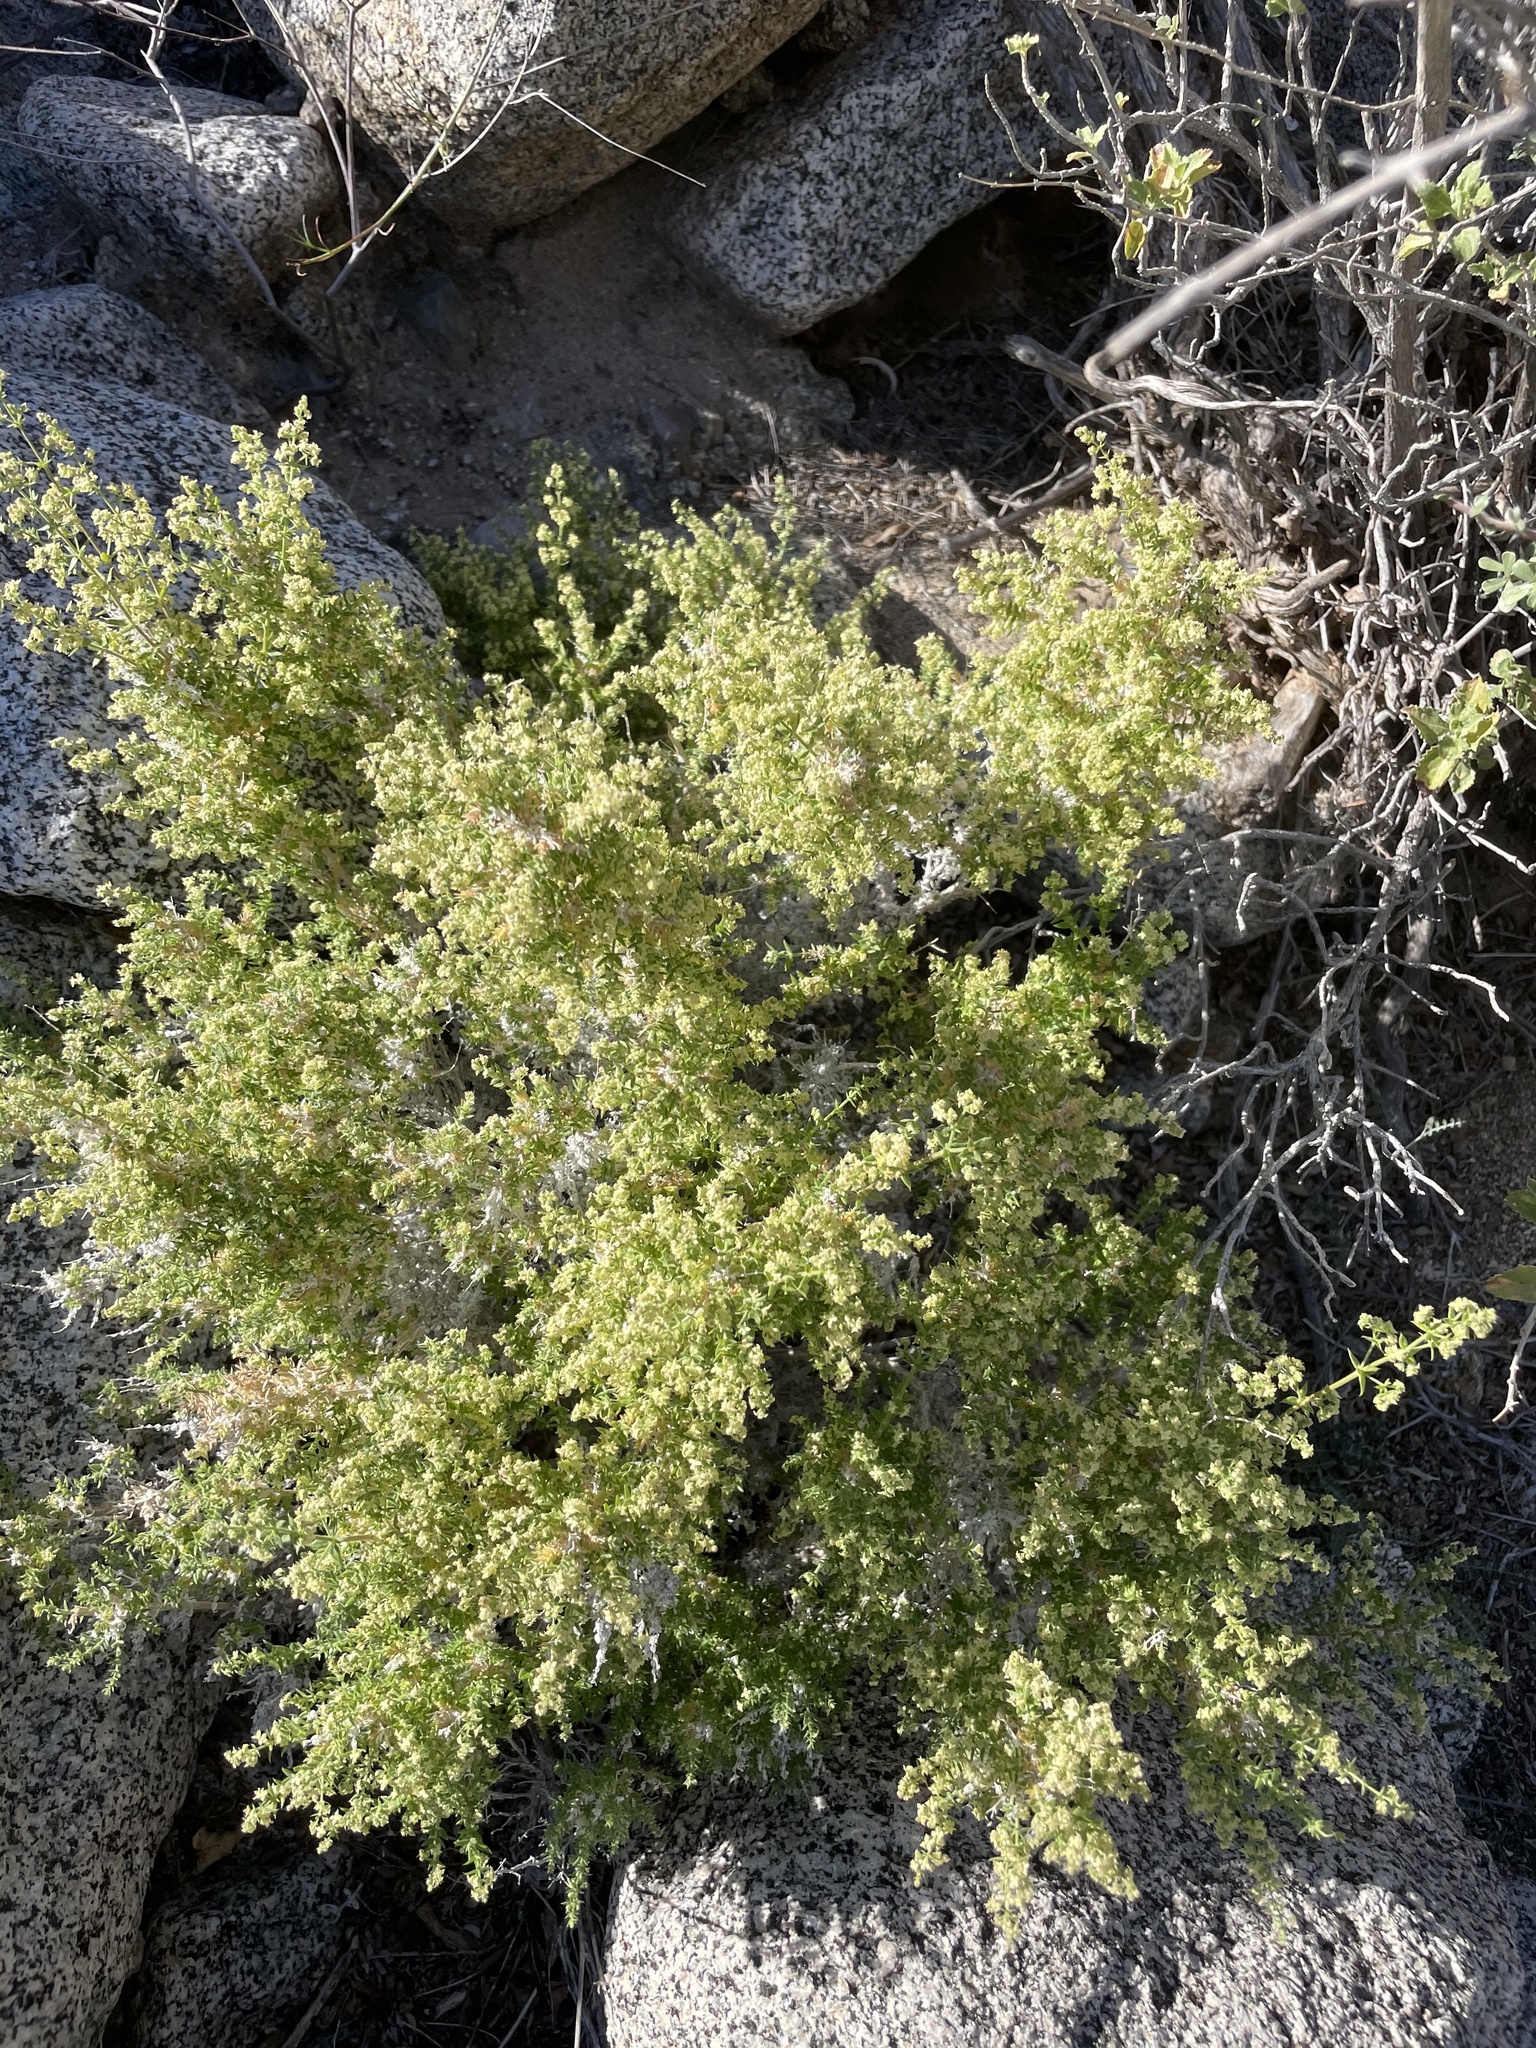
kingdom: Plantae
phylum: Tracheophyta
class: Magnoliopsida
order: Gentianales
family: Rubiaceae
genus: Galium
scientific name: Galium stellatum
